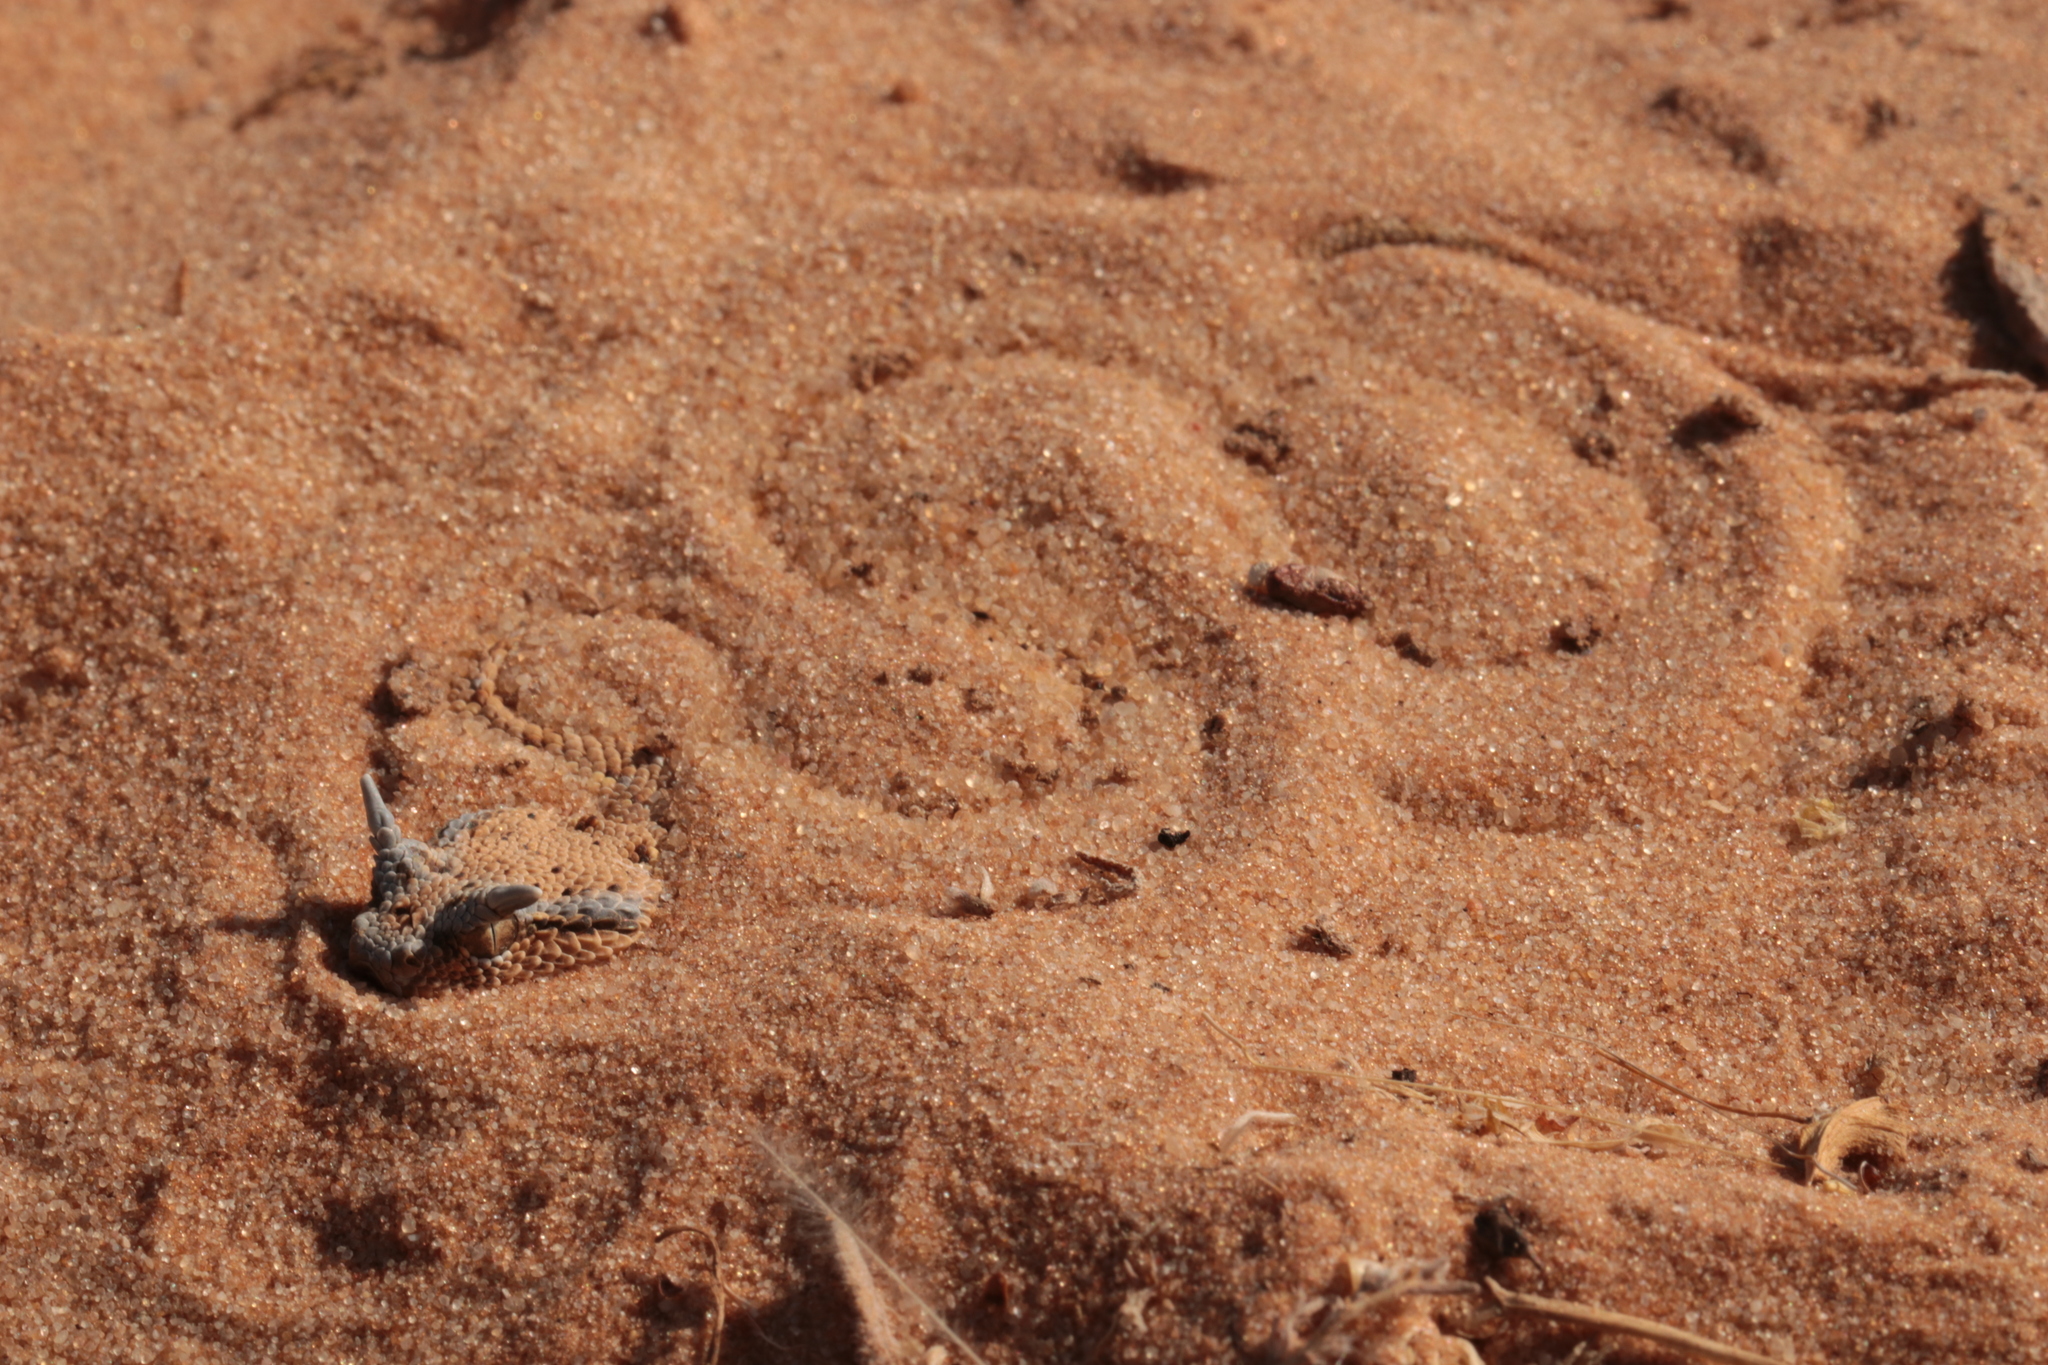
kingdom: Animalia
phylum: Chordata
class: Squamata
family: Viperidae
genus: Cerastes
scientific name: Cerastes gasperettii
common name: Arabian horned viper
